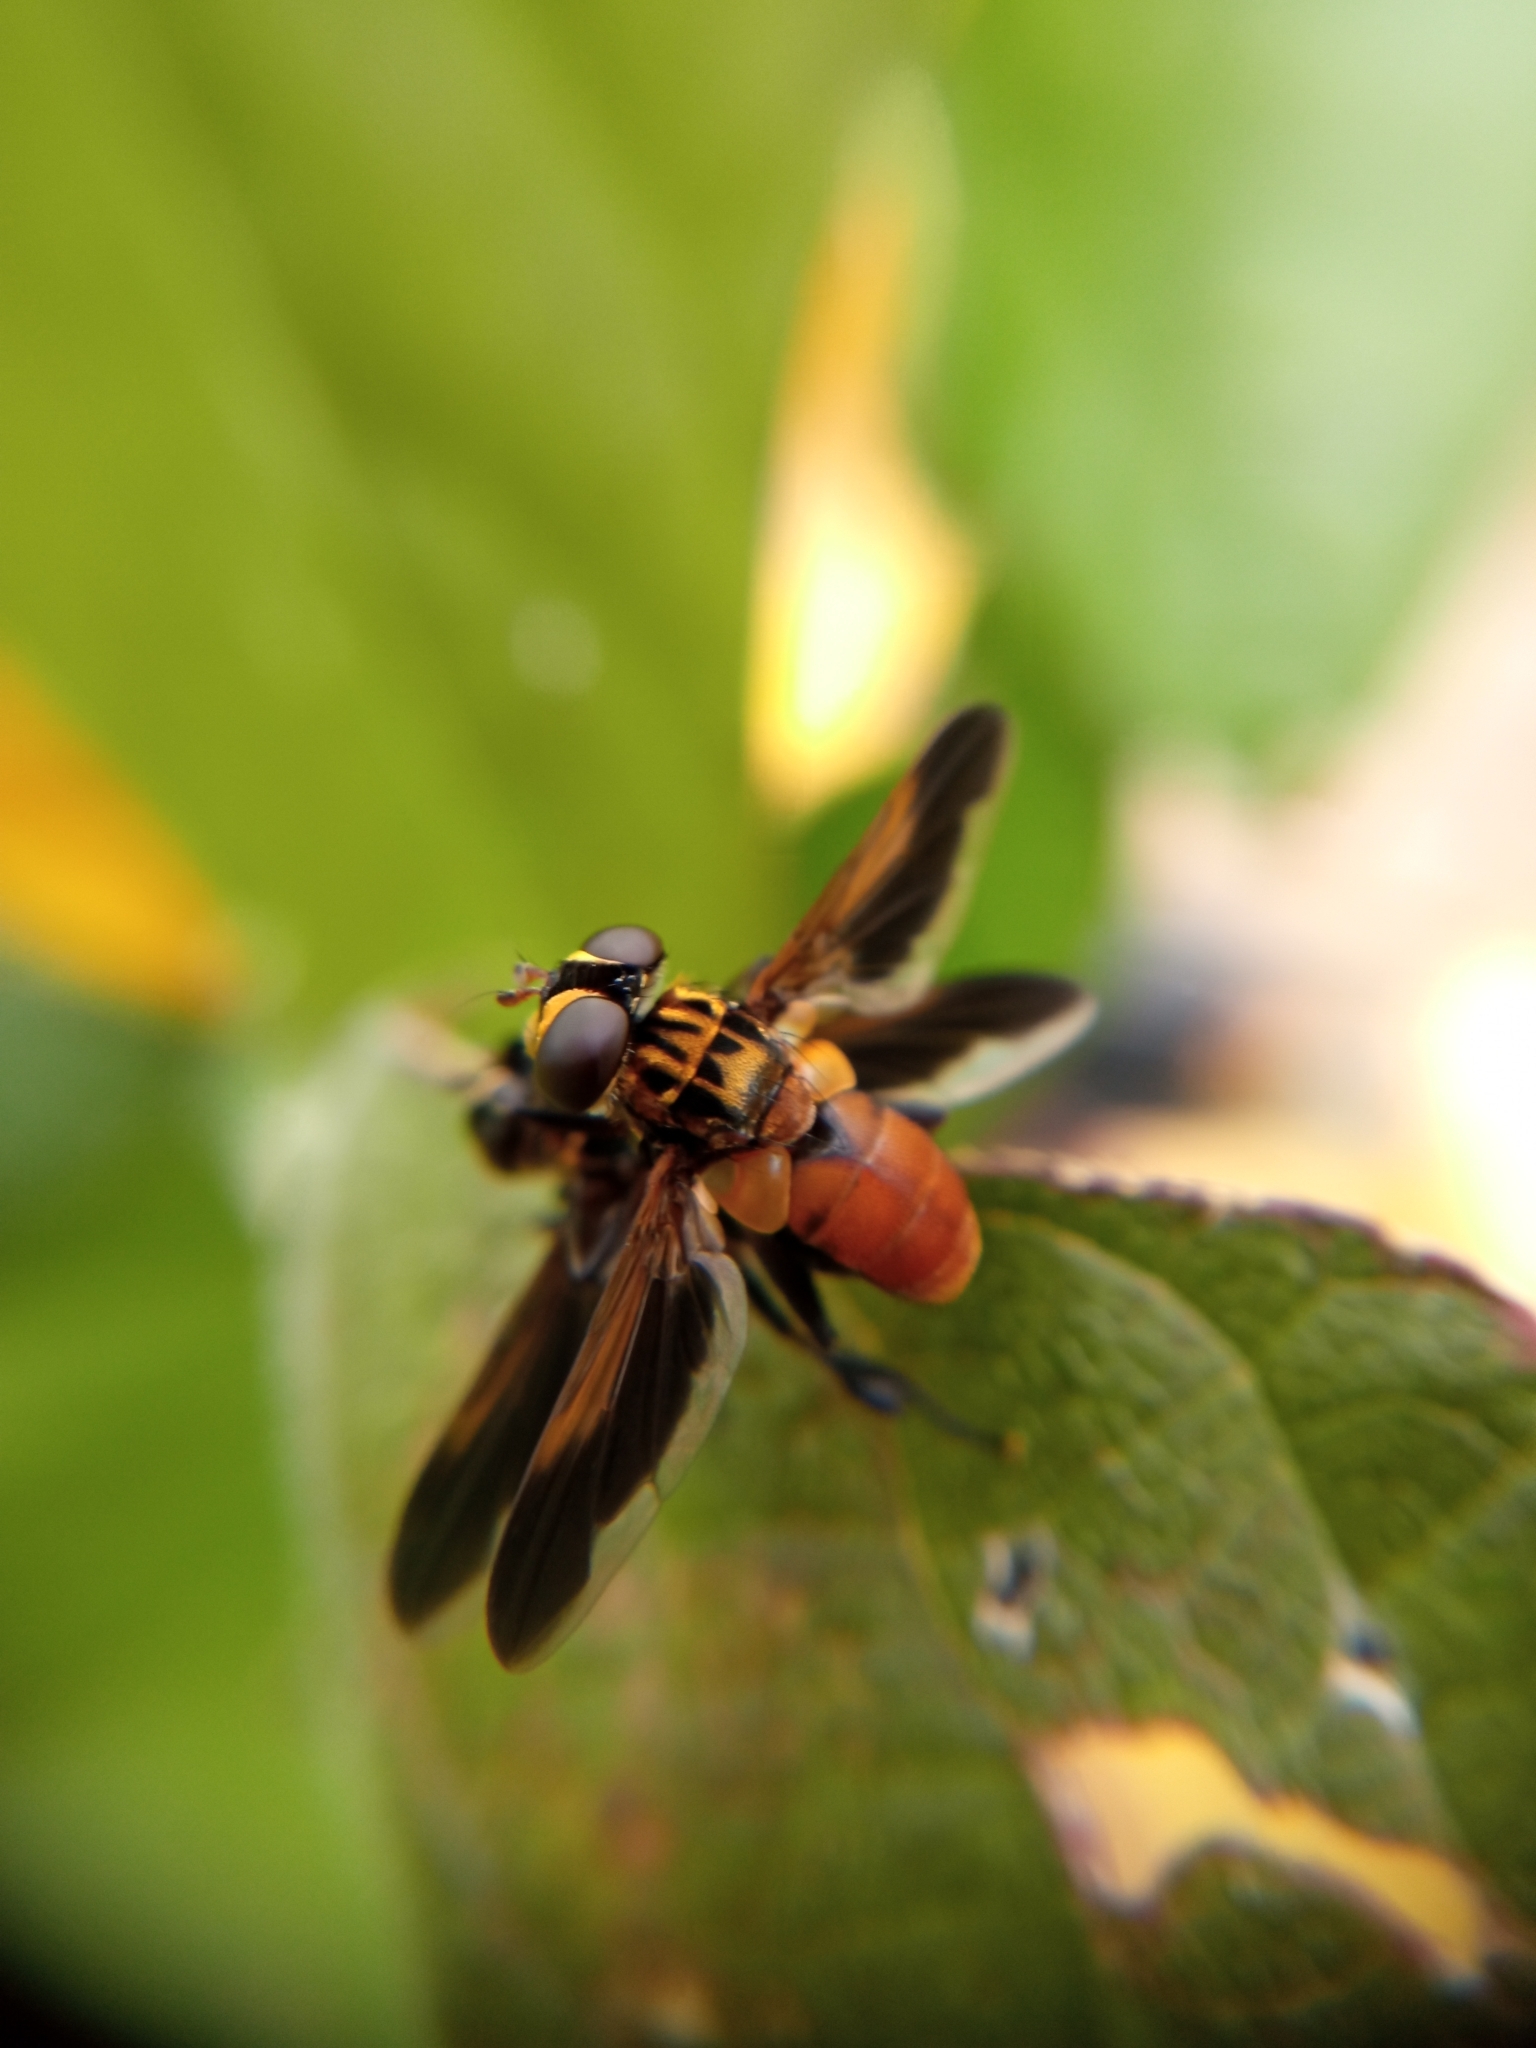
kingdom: Animalia
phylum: Arthropoda
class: Insecta
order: Diptera
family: Tachinidae
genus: Trichopoda
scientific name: Trichopoda pictipennis
